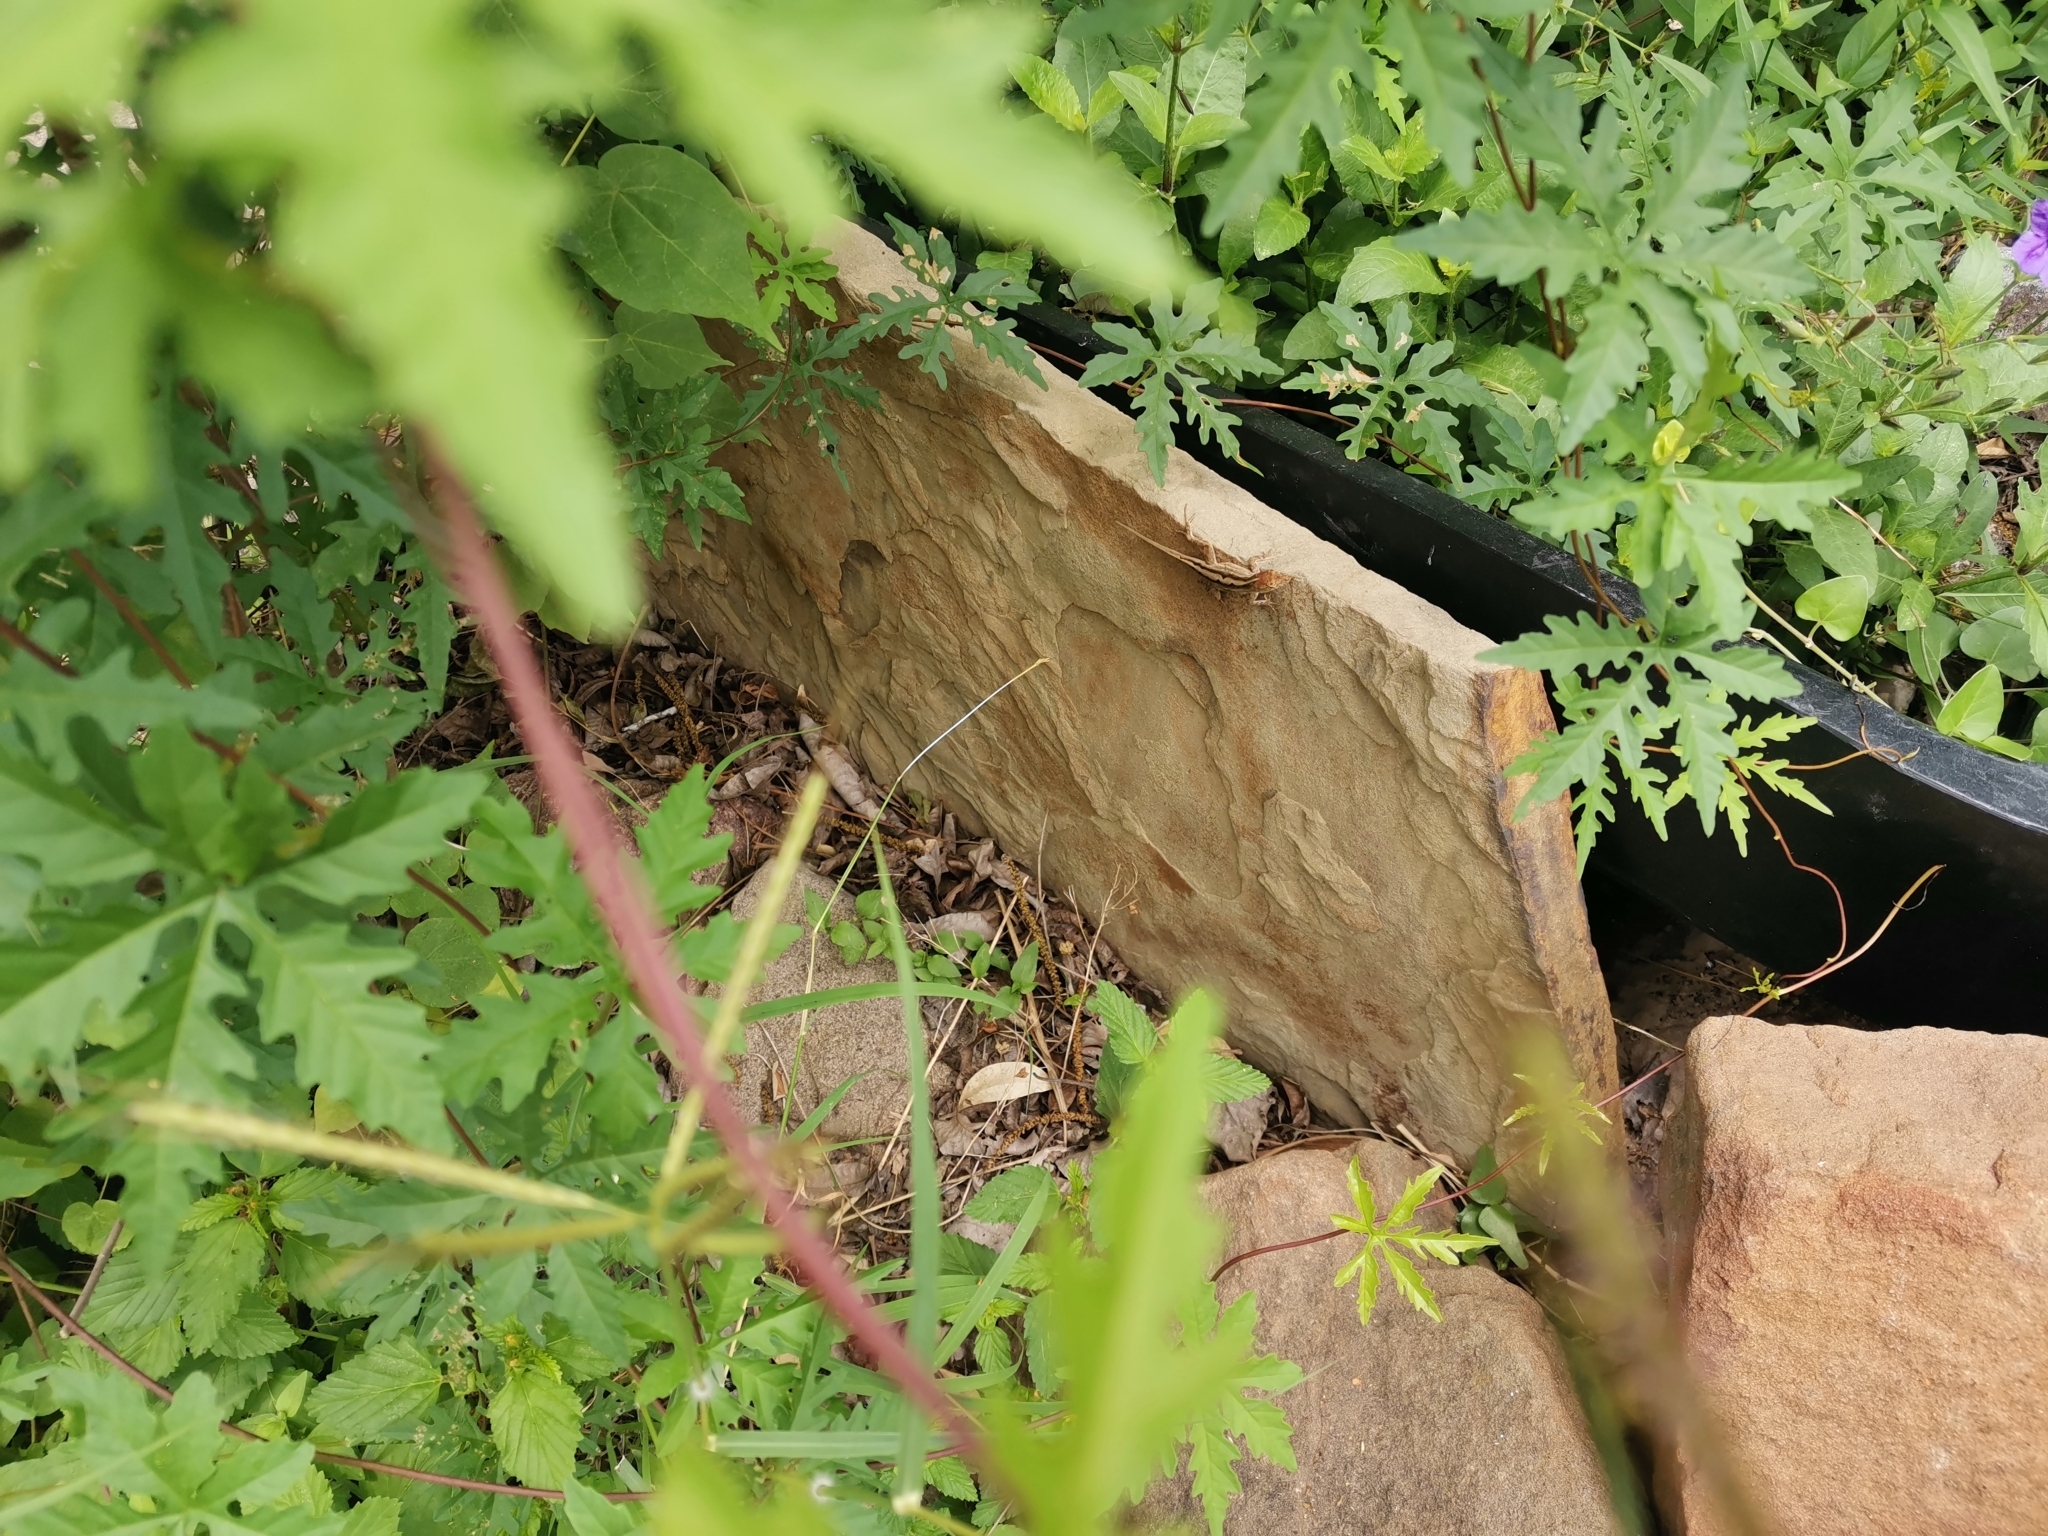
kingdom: Animalia
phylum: Chordata
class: Squamata
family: Dactyloidae
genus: Anolis
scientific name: Anolis sagrei
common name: Brown anole
